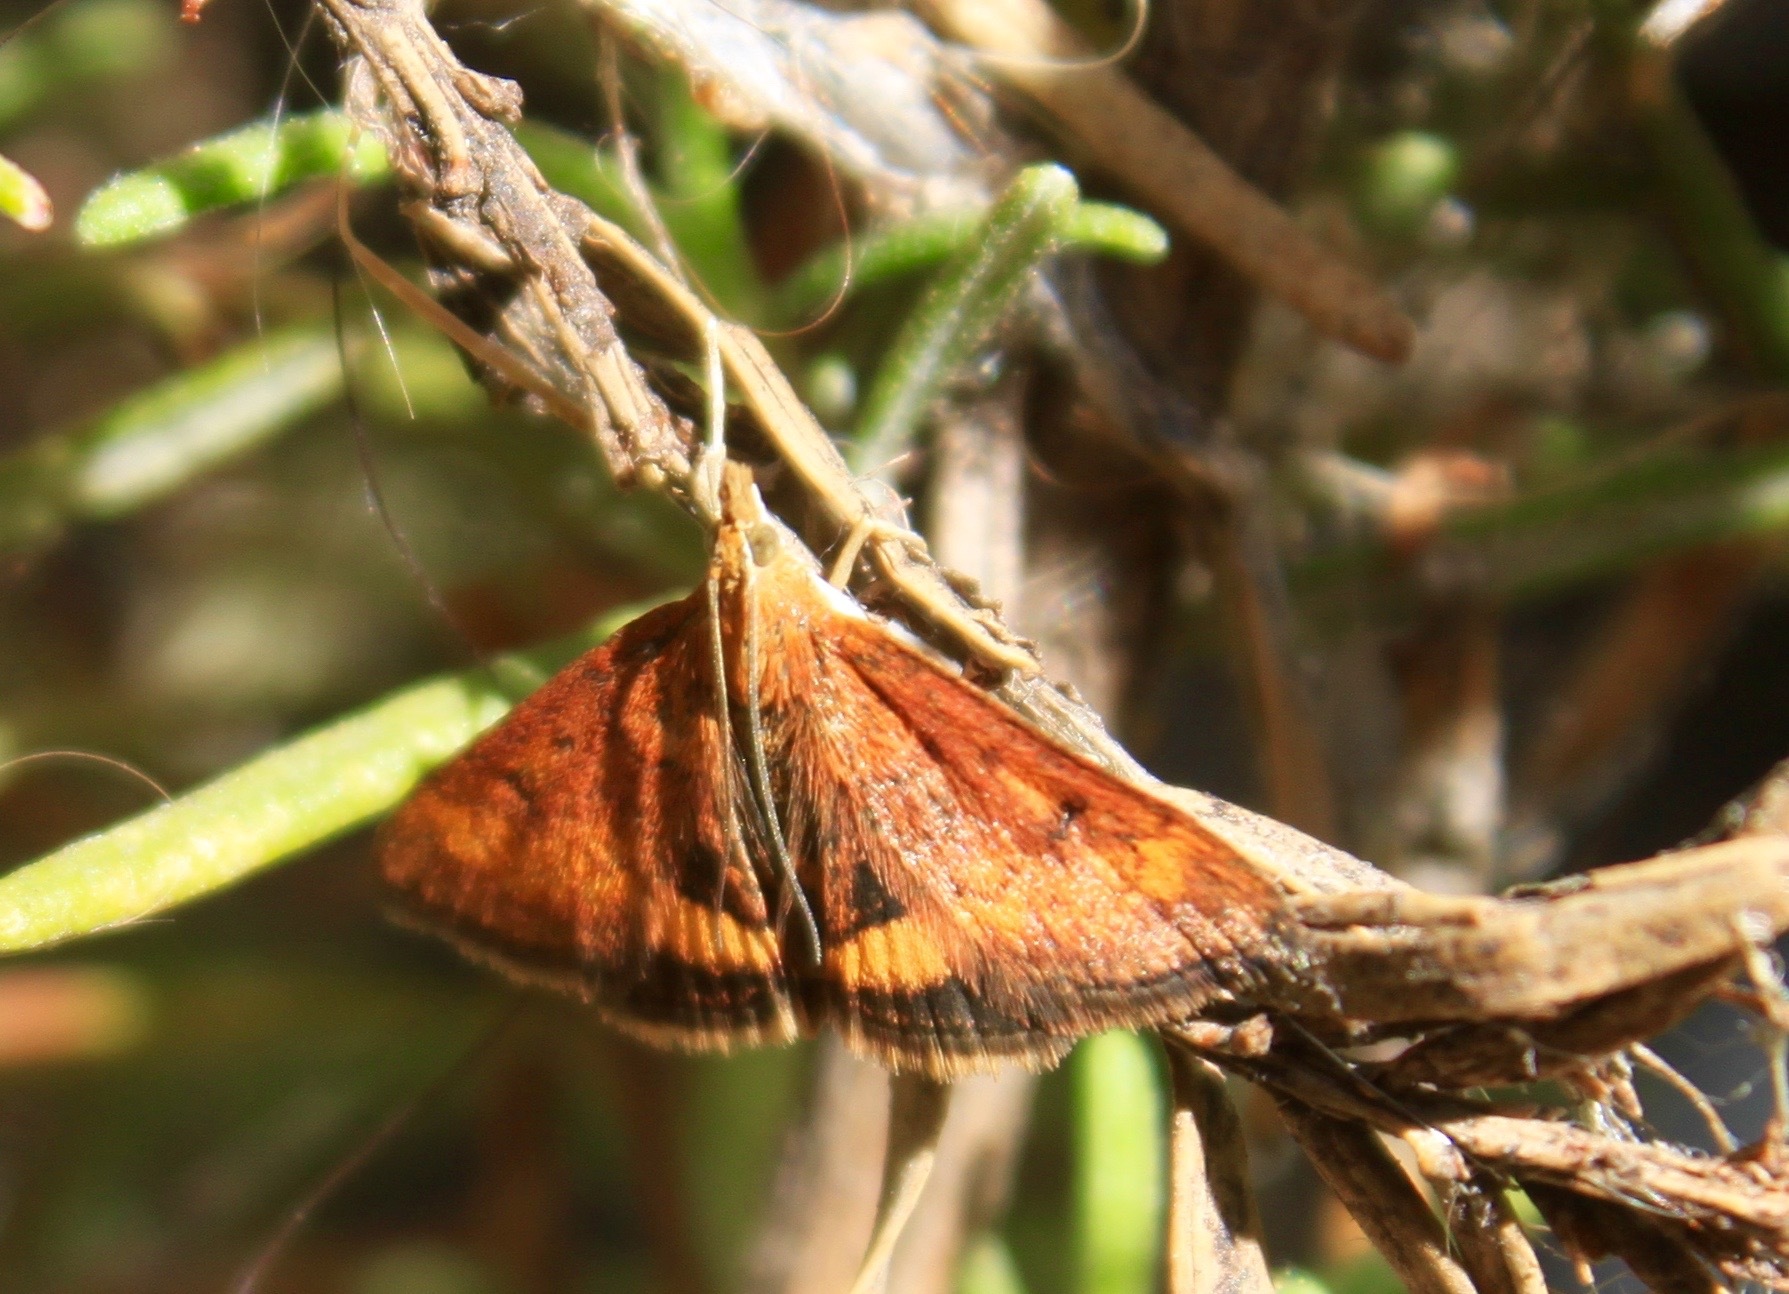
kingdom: Animalia
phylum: Arthropoda
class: Insecta
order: Lepidoptera
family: Crambidae
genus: Pyrausta
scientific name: Pyrausta californicalis
